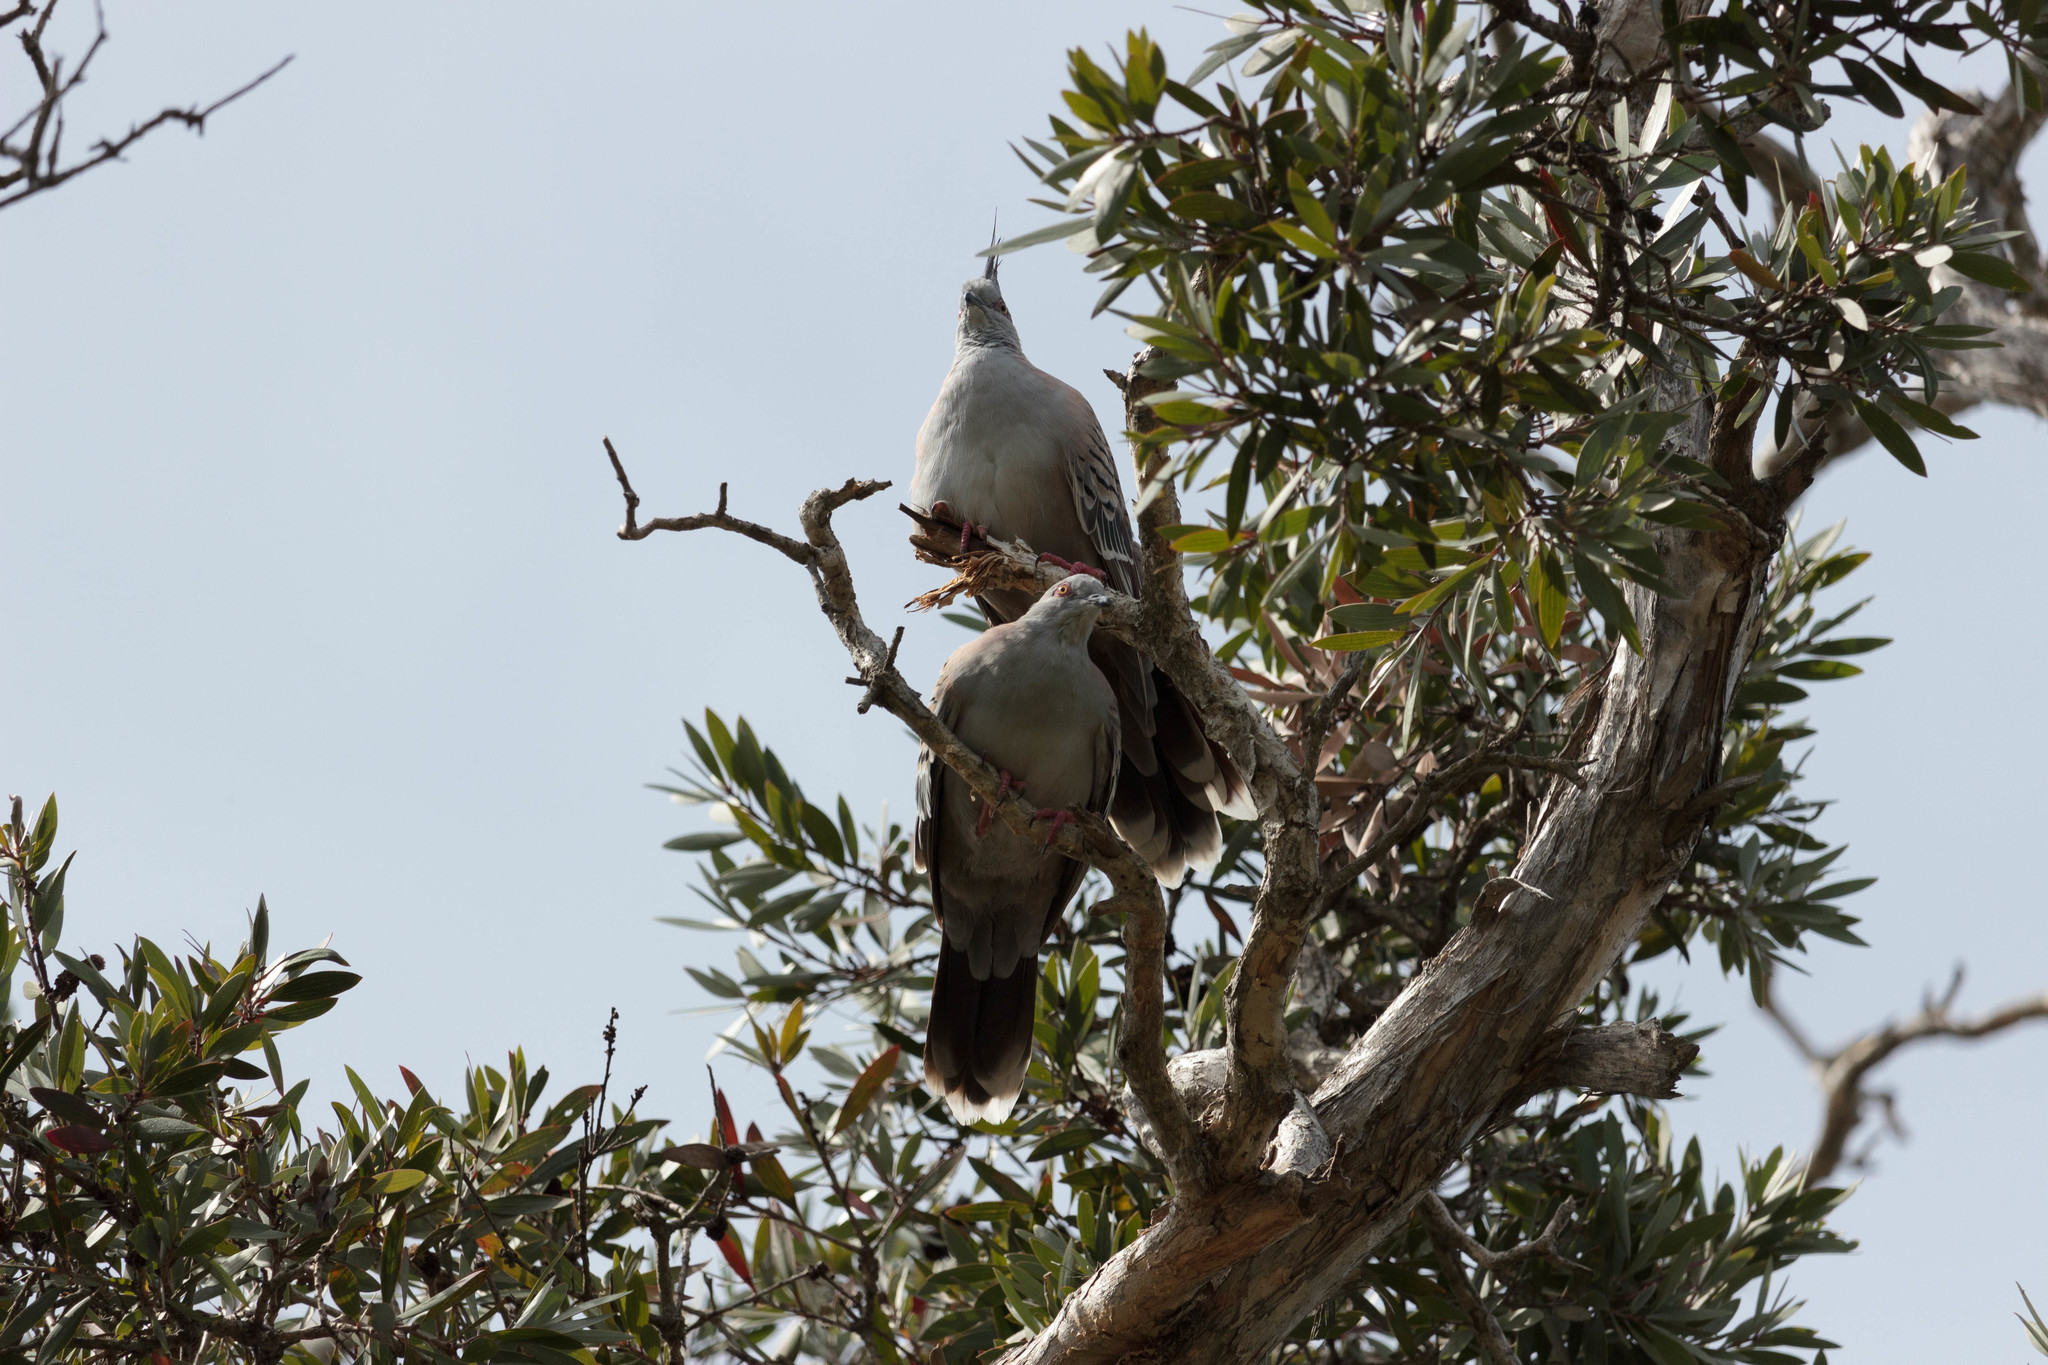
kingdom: Animalia
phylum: Chordata
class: Aves
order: Columbiformes
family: Columbidae
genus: Ocyphaps
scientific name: Ocyphaps lophotes
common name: Crested pigeon
